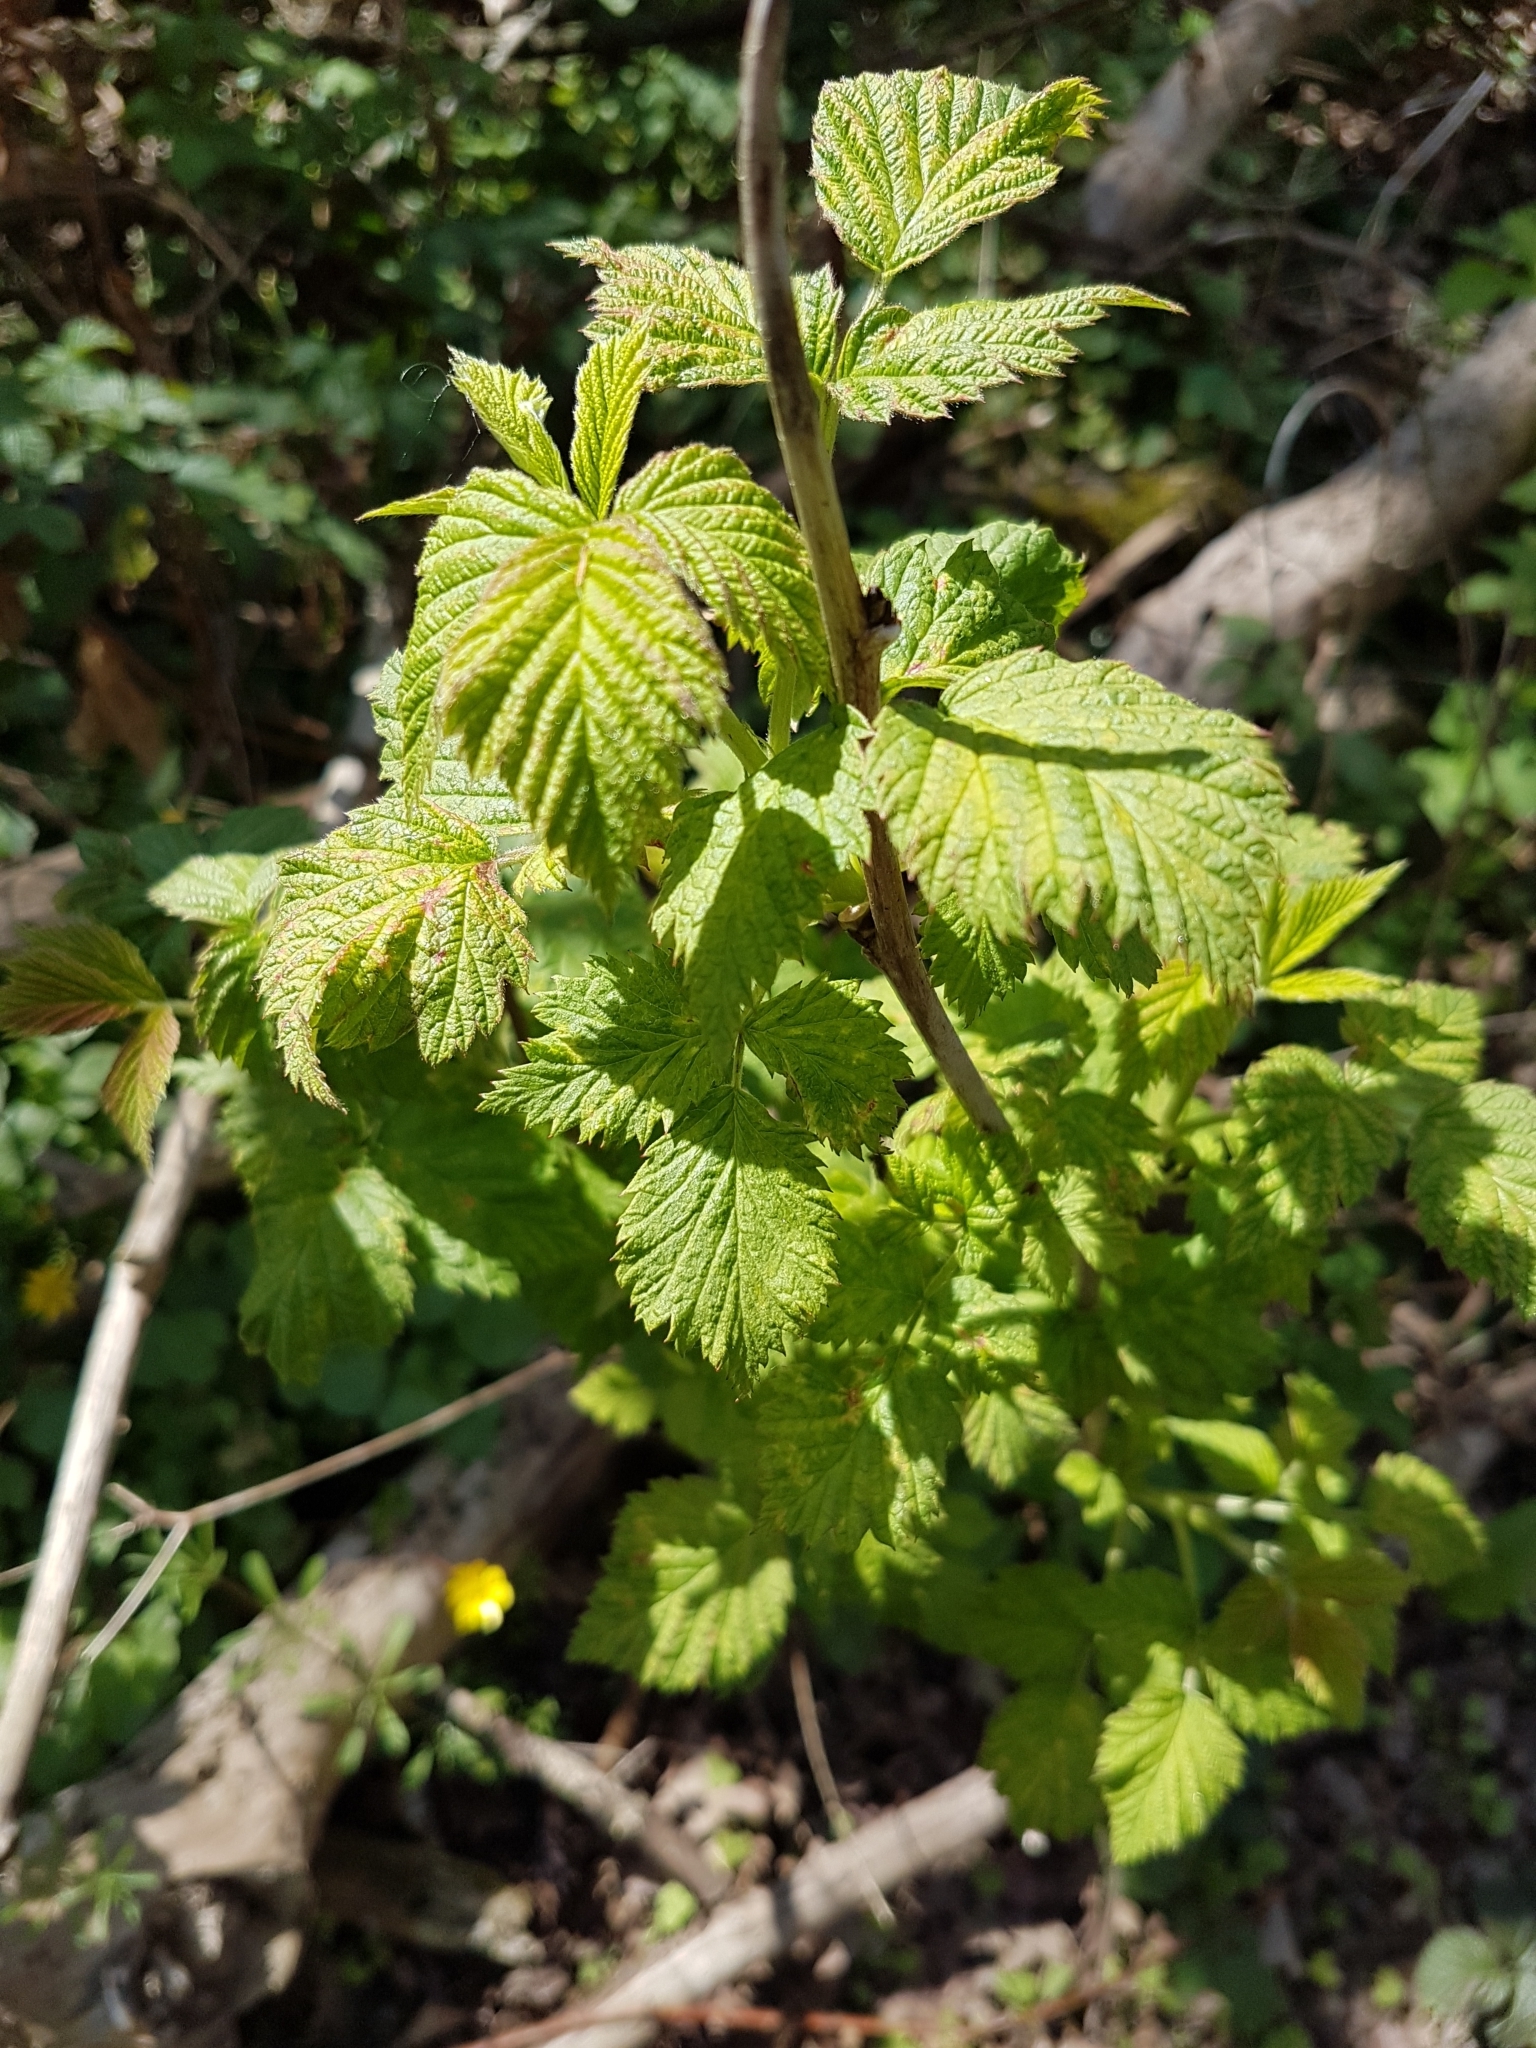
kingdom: Plantae
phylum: Tracheophyta
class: Magnoliopsida
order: Rosales
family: Rosaceae
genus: Rubus
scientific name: Rubus idaeus
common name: Raspberry
